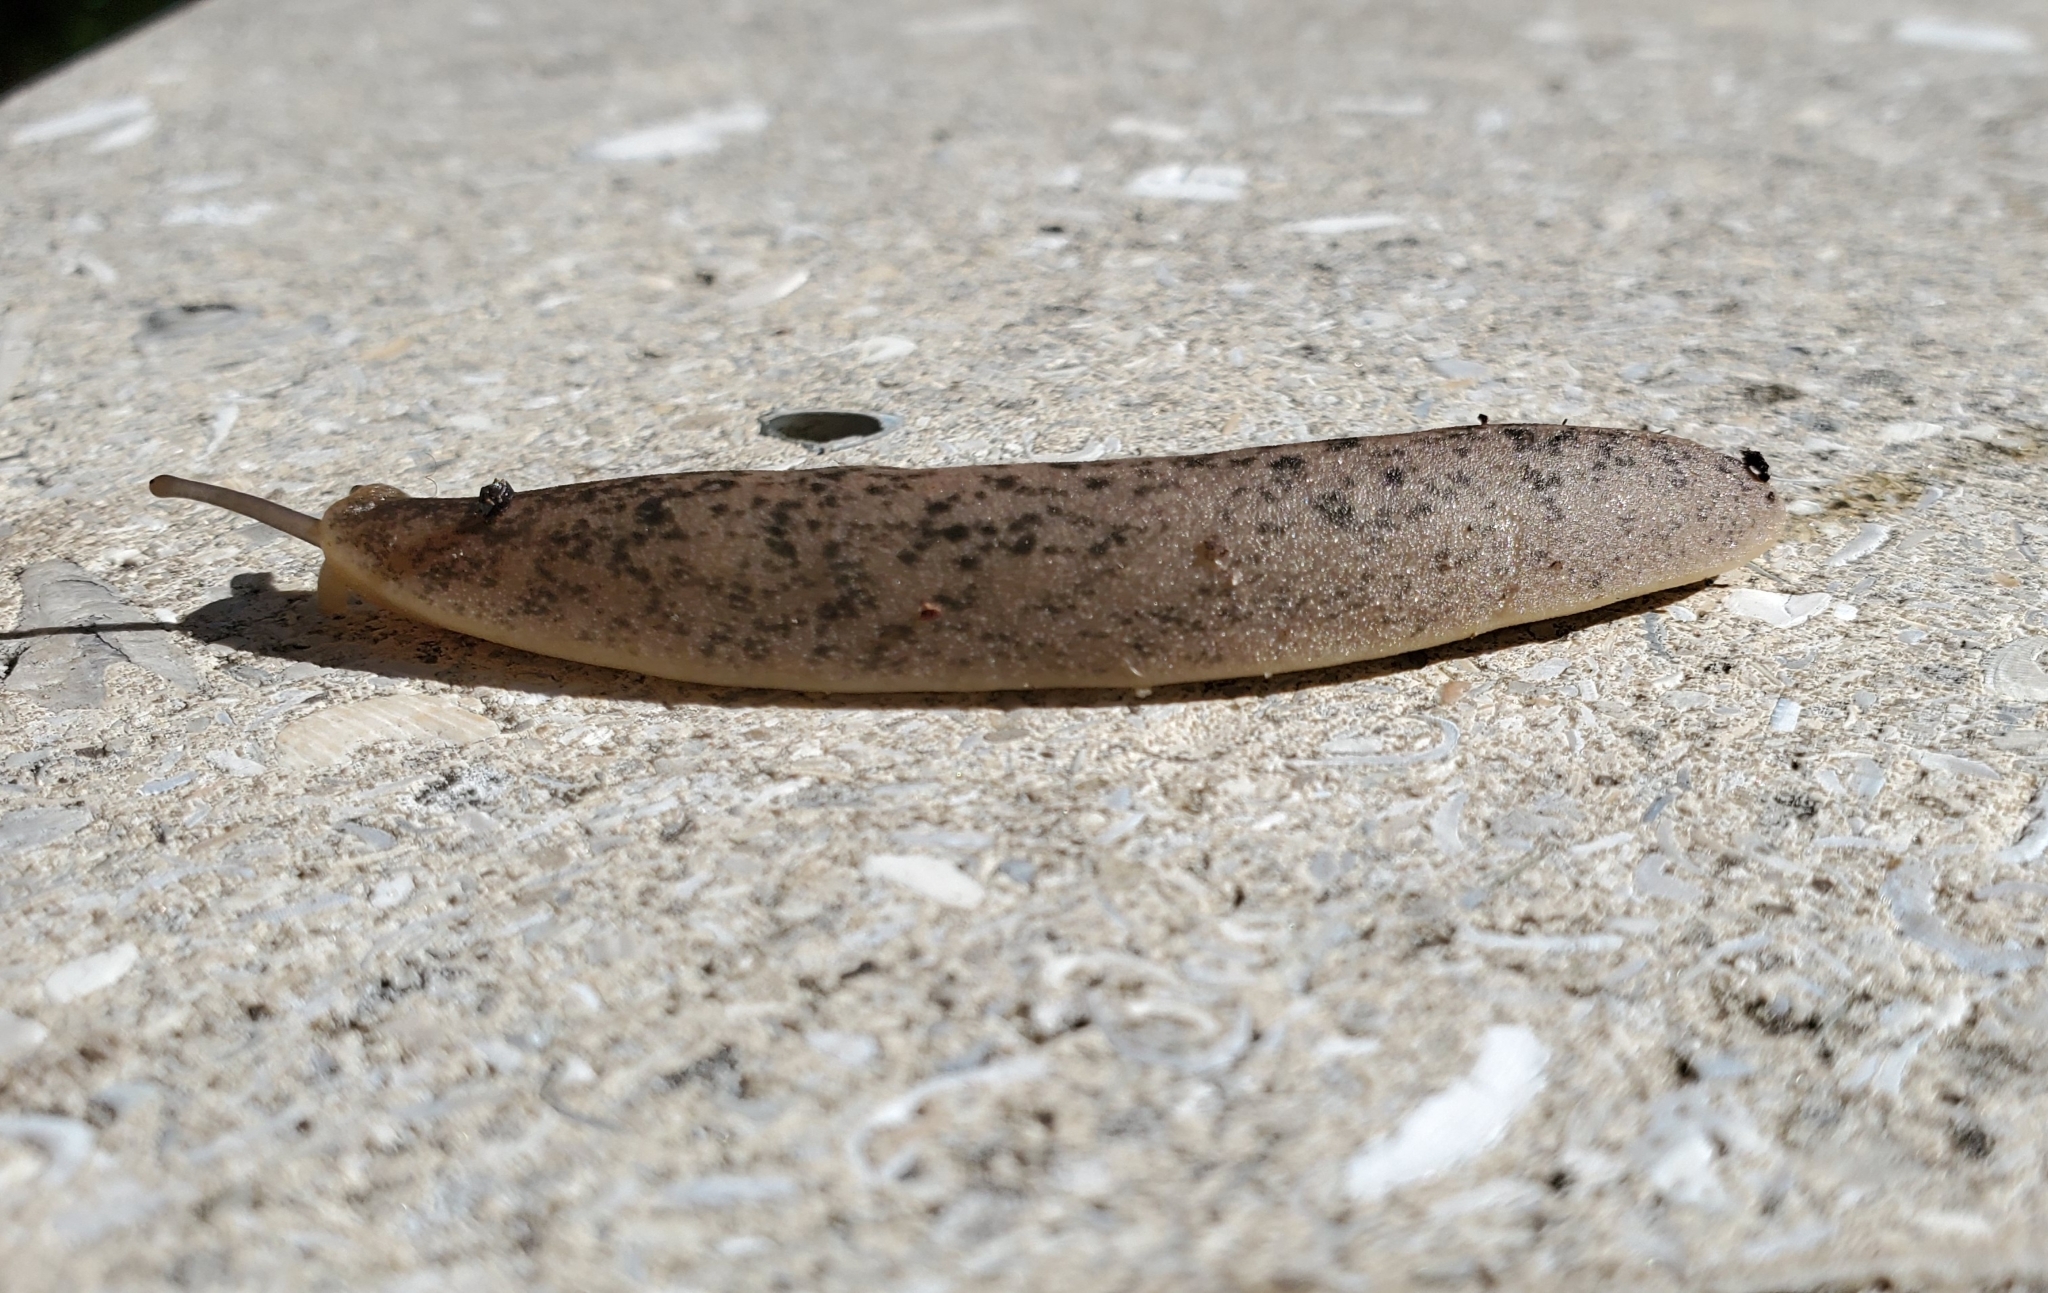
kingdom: Animalia
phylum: Mollusca
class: Gastropoda
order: Systellommatophora
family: Veronicellidae
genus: Leidyula
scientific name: Leidyula floridana
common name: Florida leatherleaf
